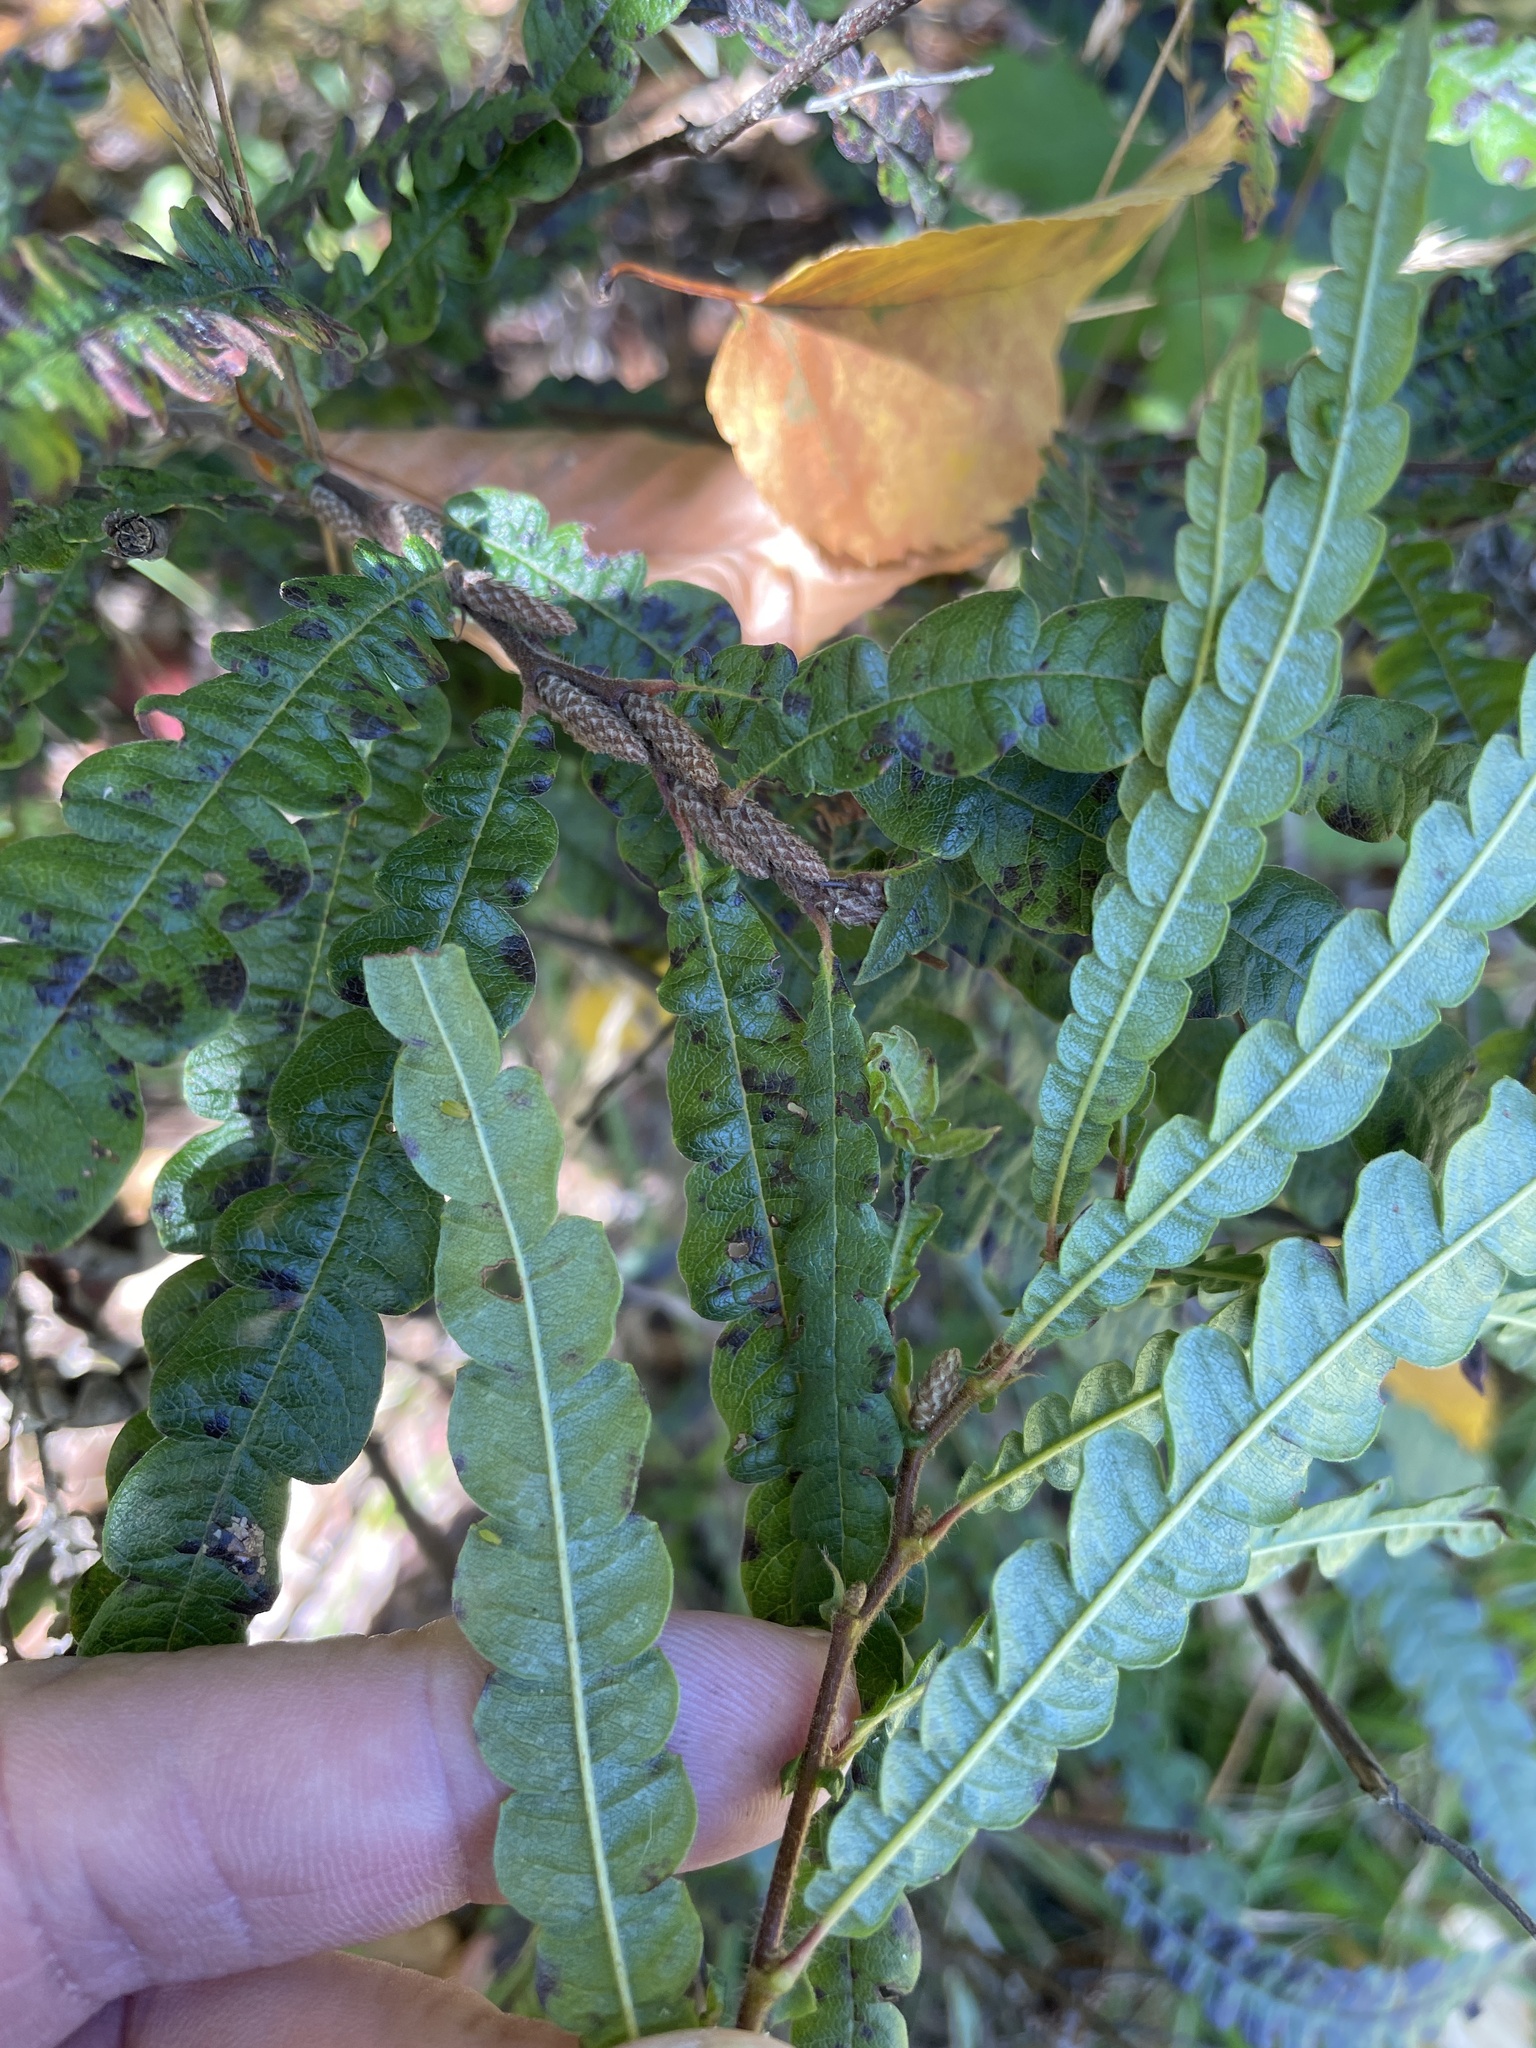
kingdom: Plantae
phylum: Tracheophyta
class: Magnoliopsida
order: Fagales
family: Myricaceae
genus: Comptonia
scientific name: Comptonia peregrina
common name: Sweet-fern
